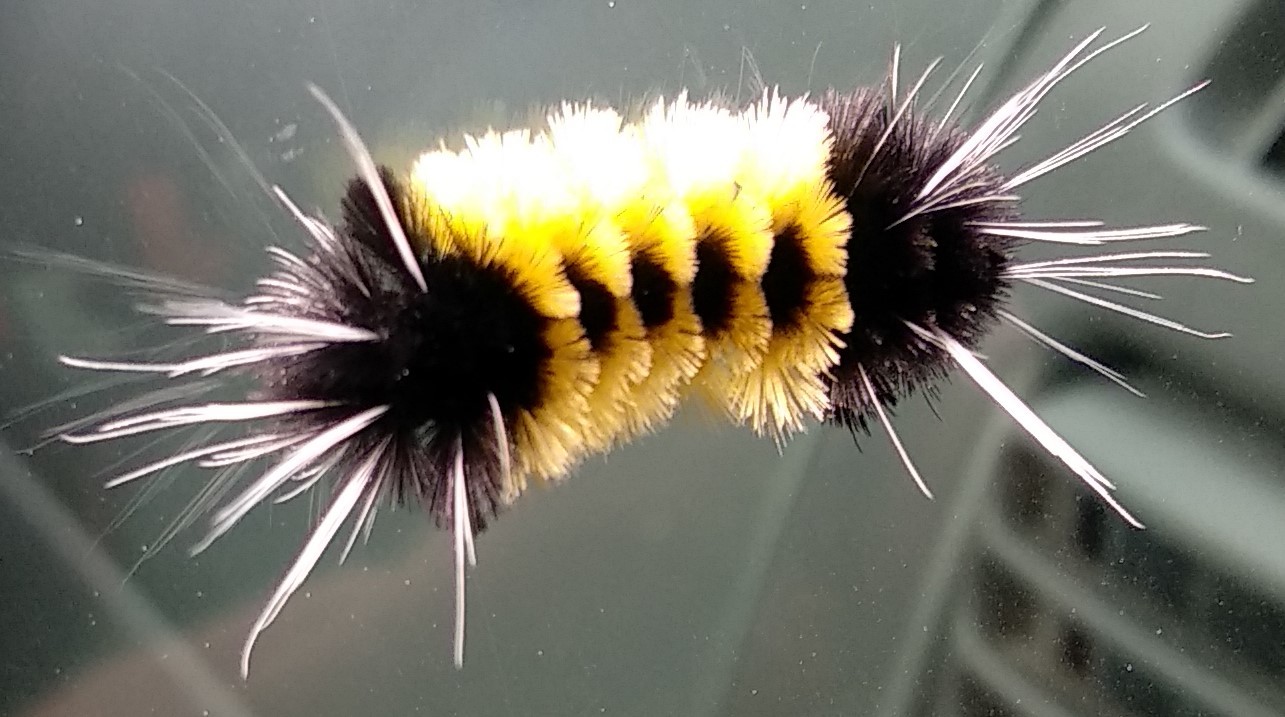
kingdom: Animalia
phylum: Arthropoda
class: Insecta
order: Lepidoptera
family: Erebidae
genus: Lophocampa
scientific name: Lophocampa maculata
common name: Spotted tussock moth
